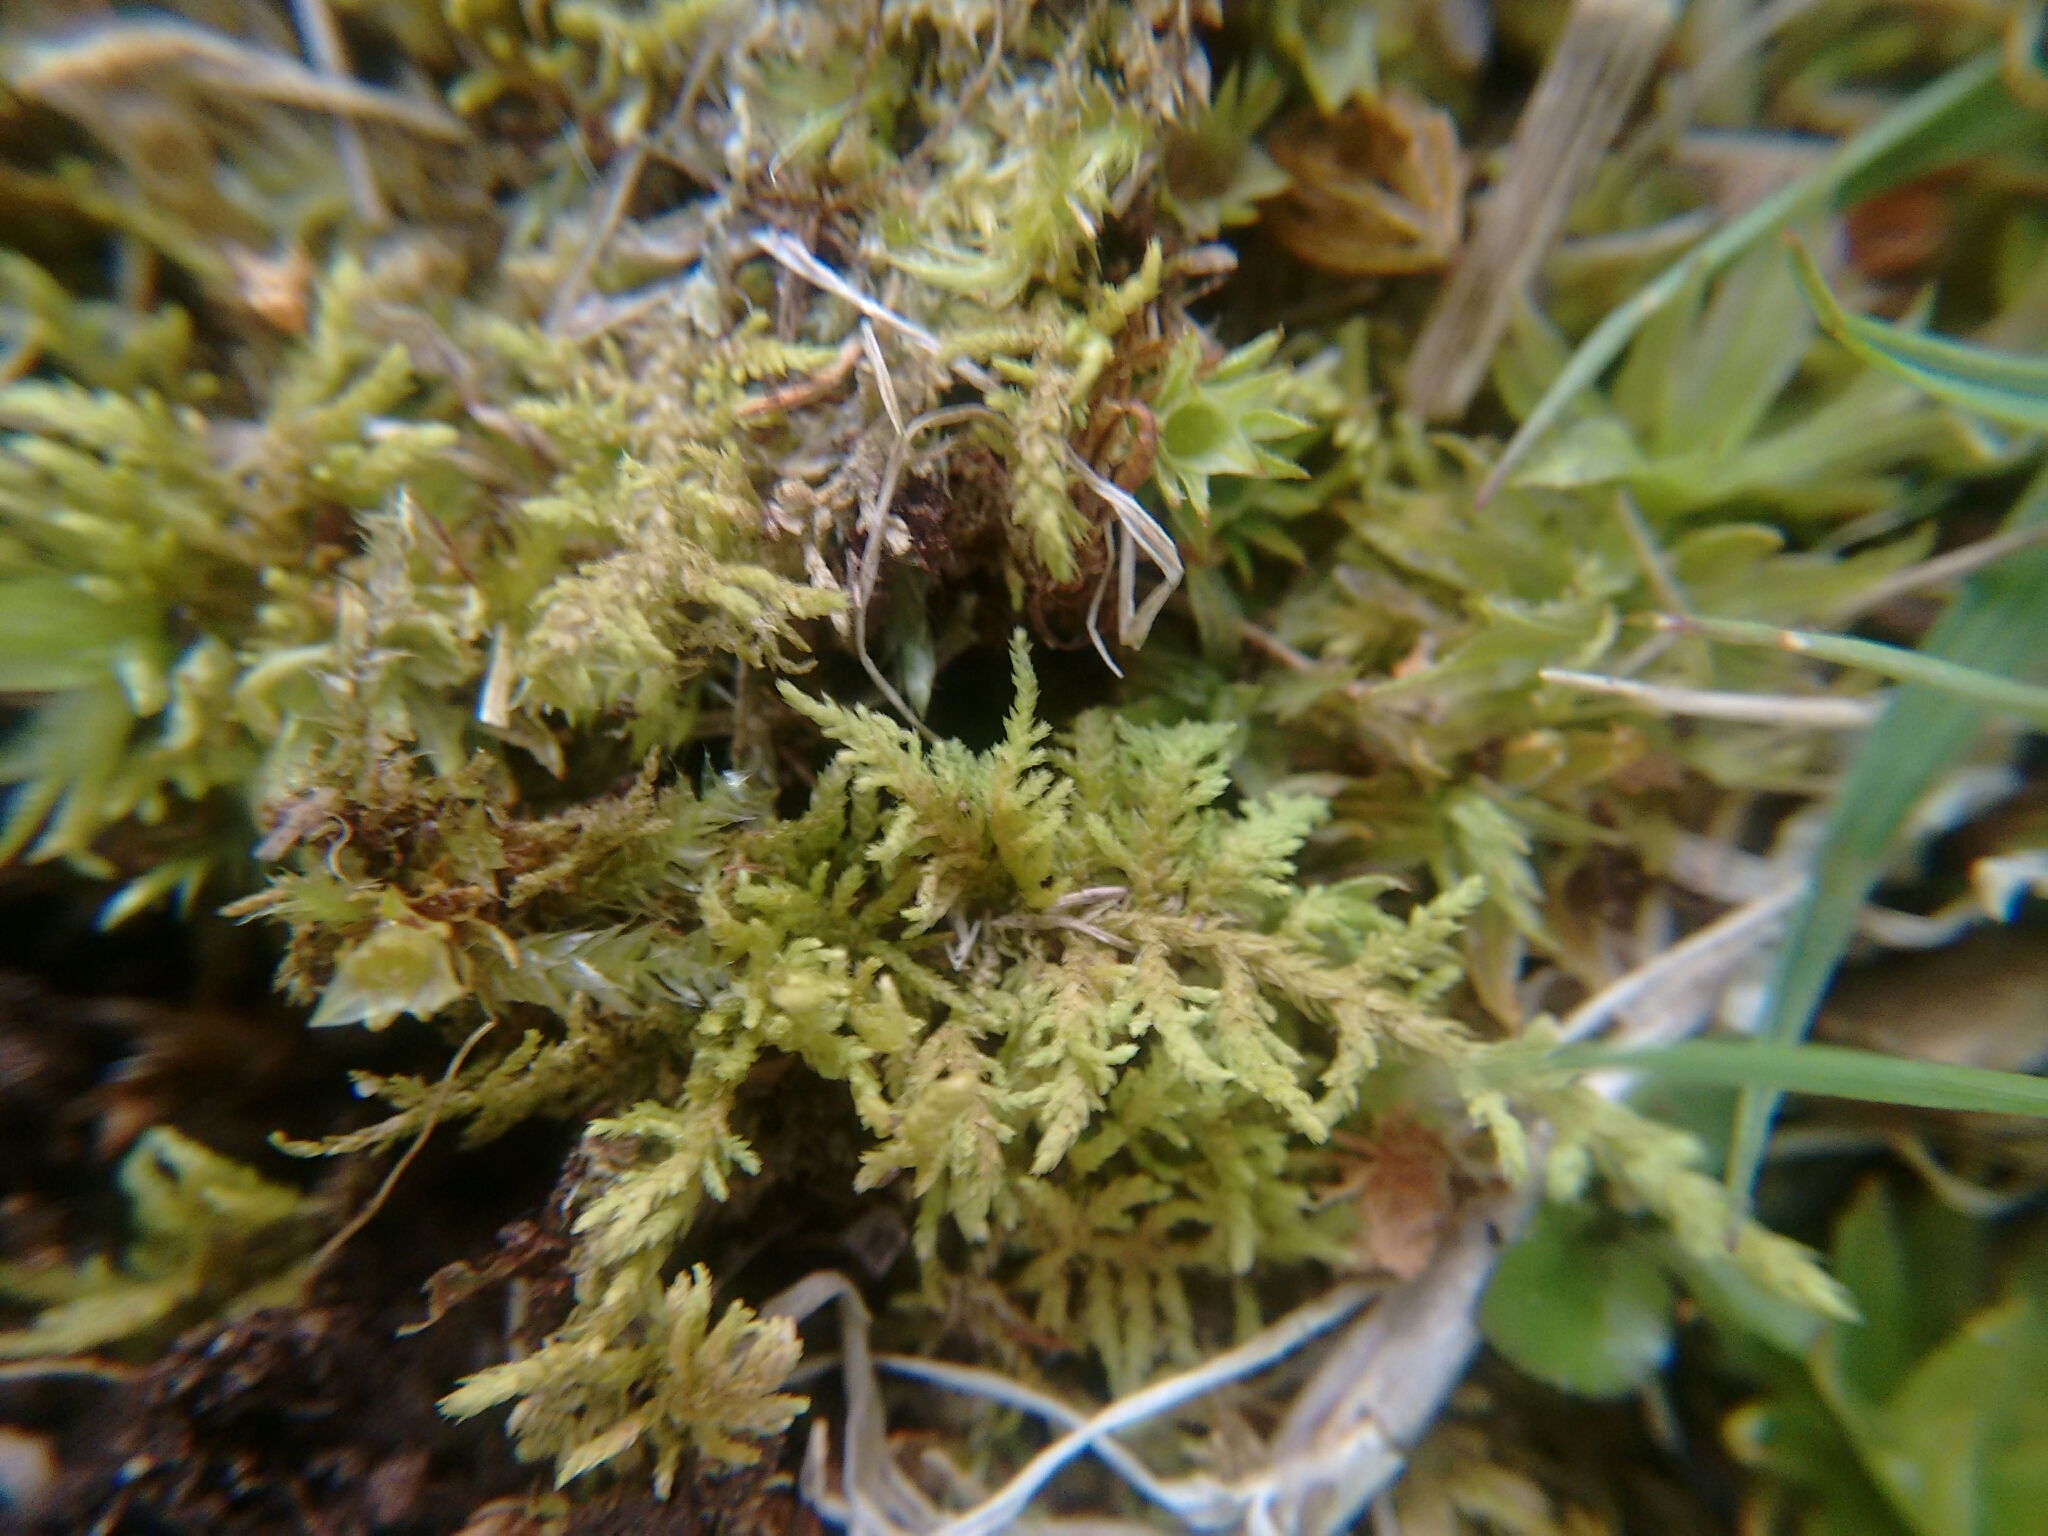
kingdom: Plantae
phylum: Bryophyta
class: Bryopsida
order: Hypnales
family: Thuidiaceae
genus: Thuidium
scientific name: Thuidium delicatulum
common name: Delicate fern moss
